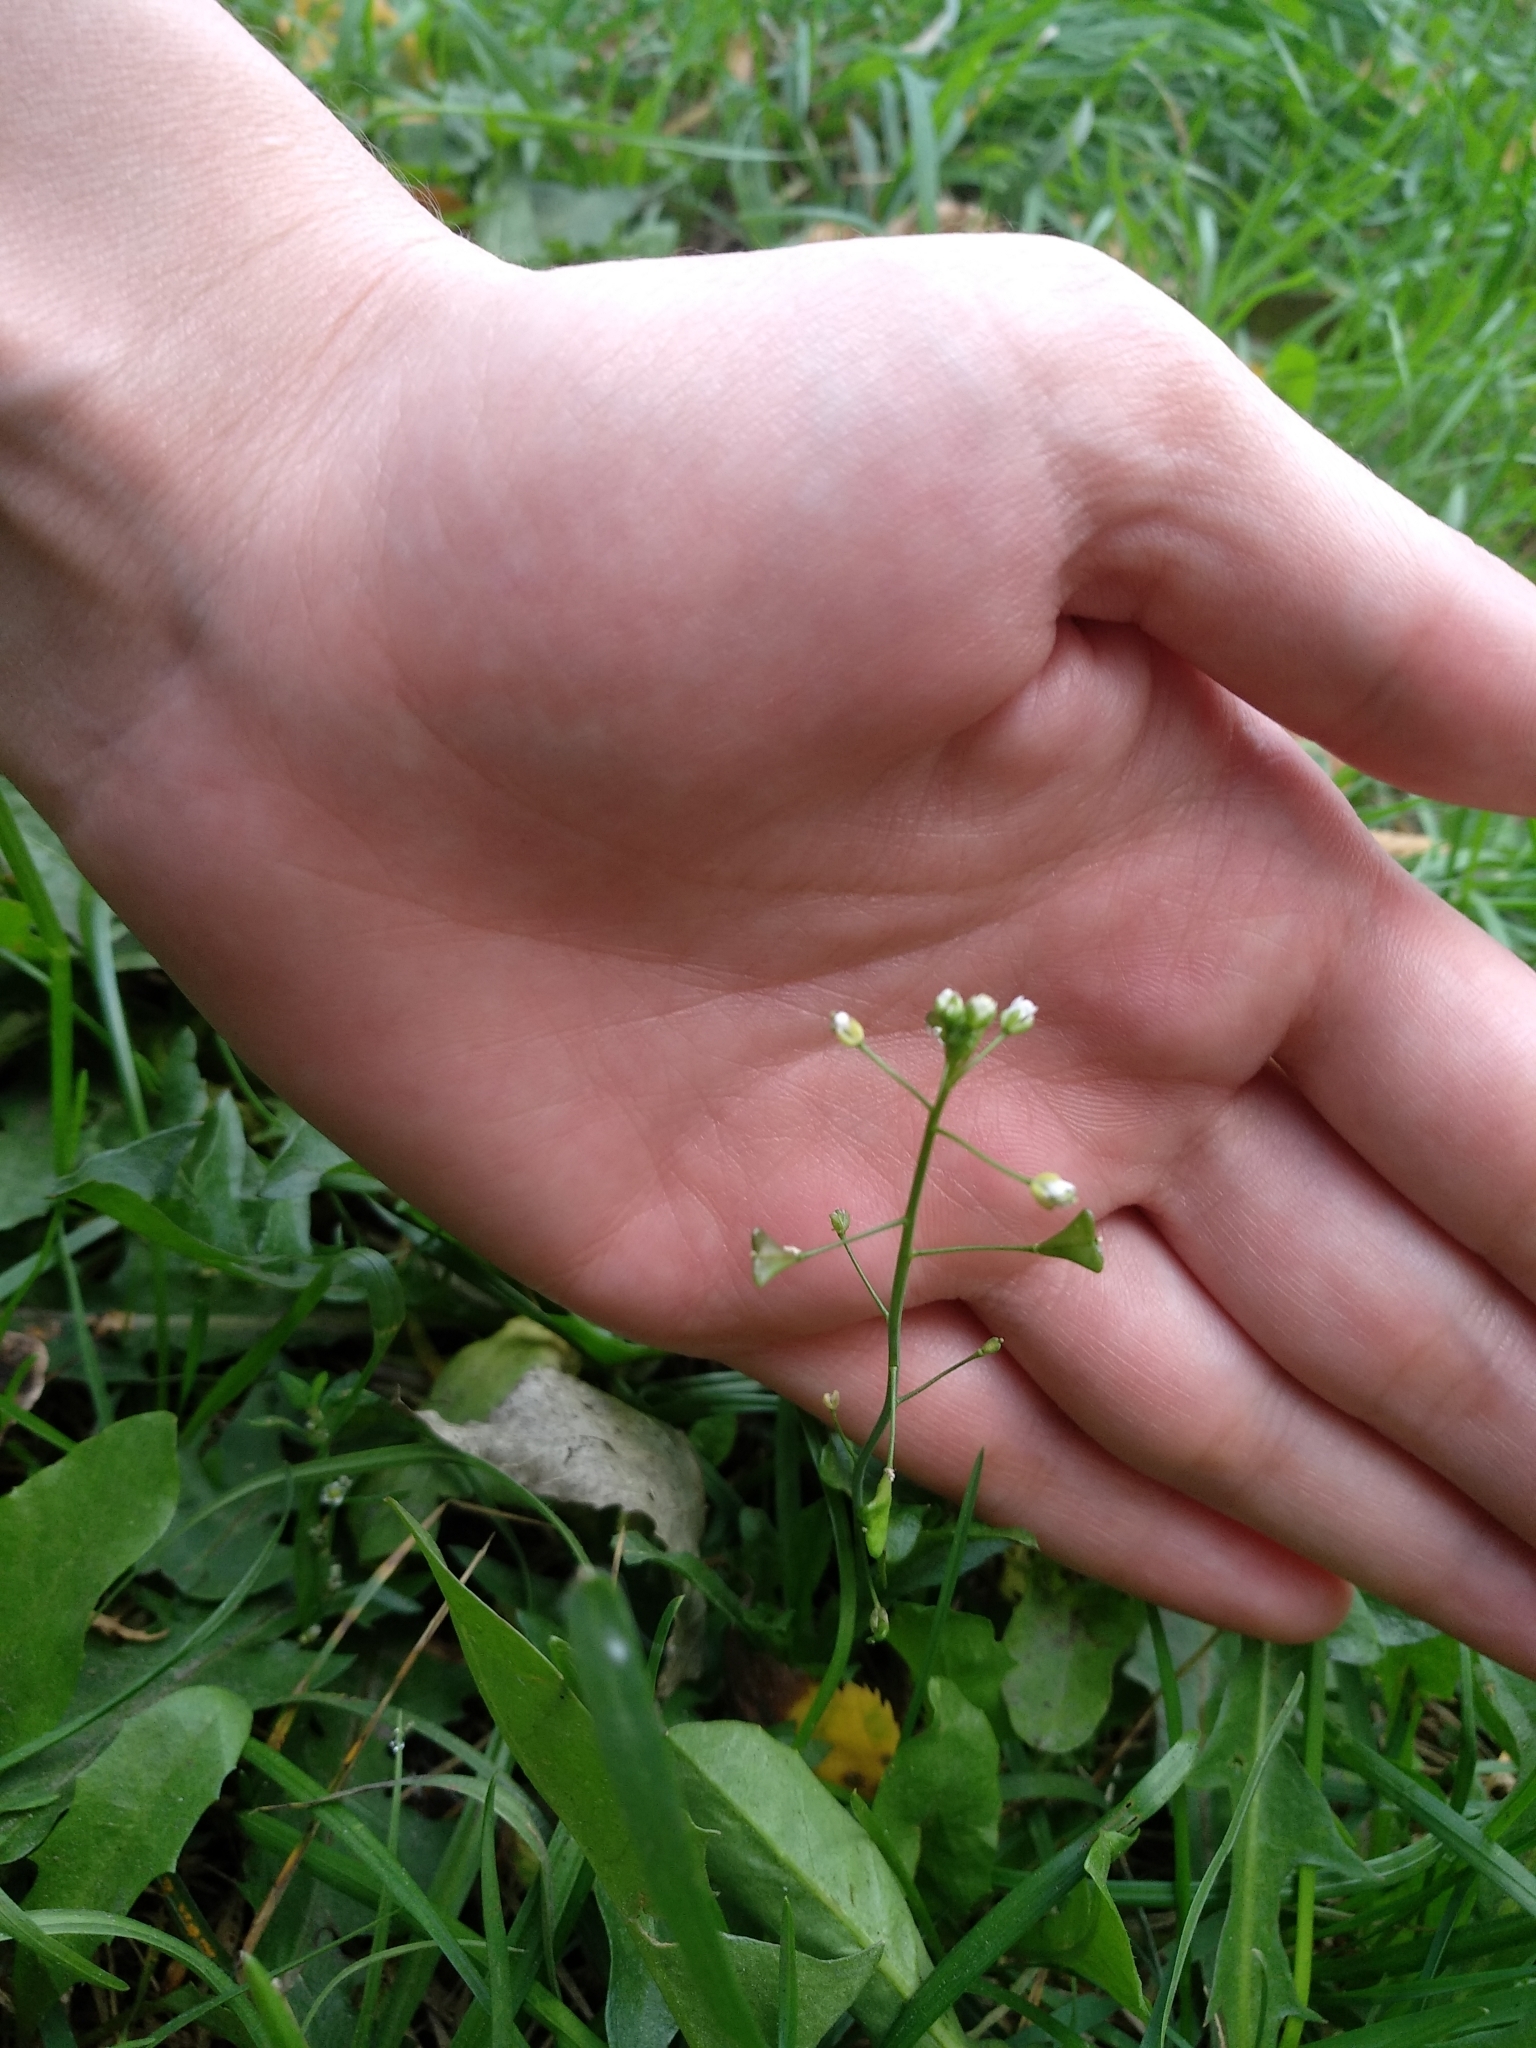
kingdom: Plantae
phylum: Tracheophyta
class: Magnoliopsida
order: Brassicales
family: Brassicaceae
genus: Capsella
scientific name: Capsella bursa-pastoris
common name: Shepherd's purse
